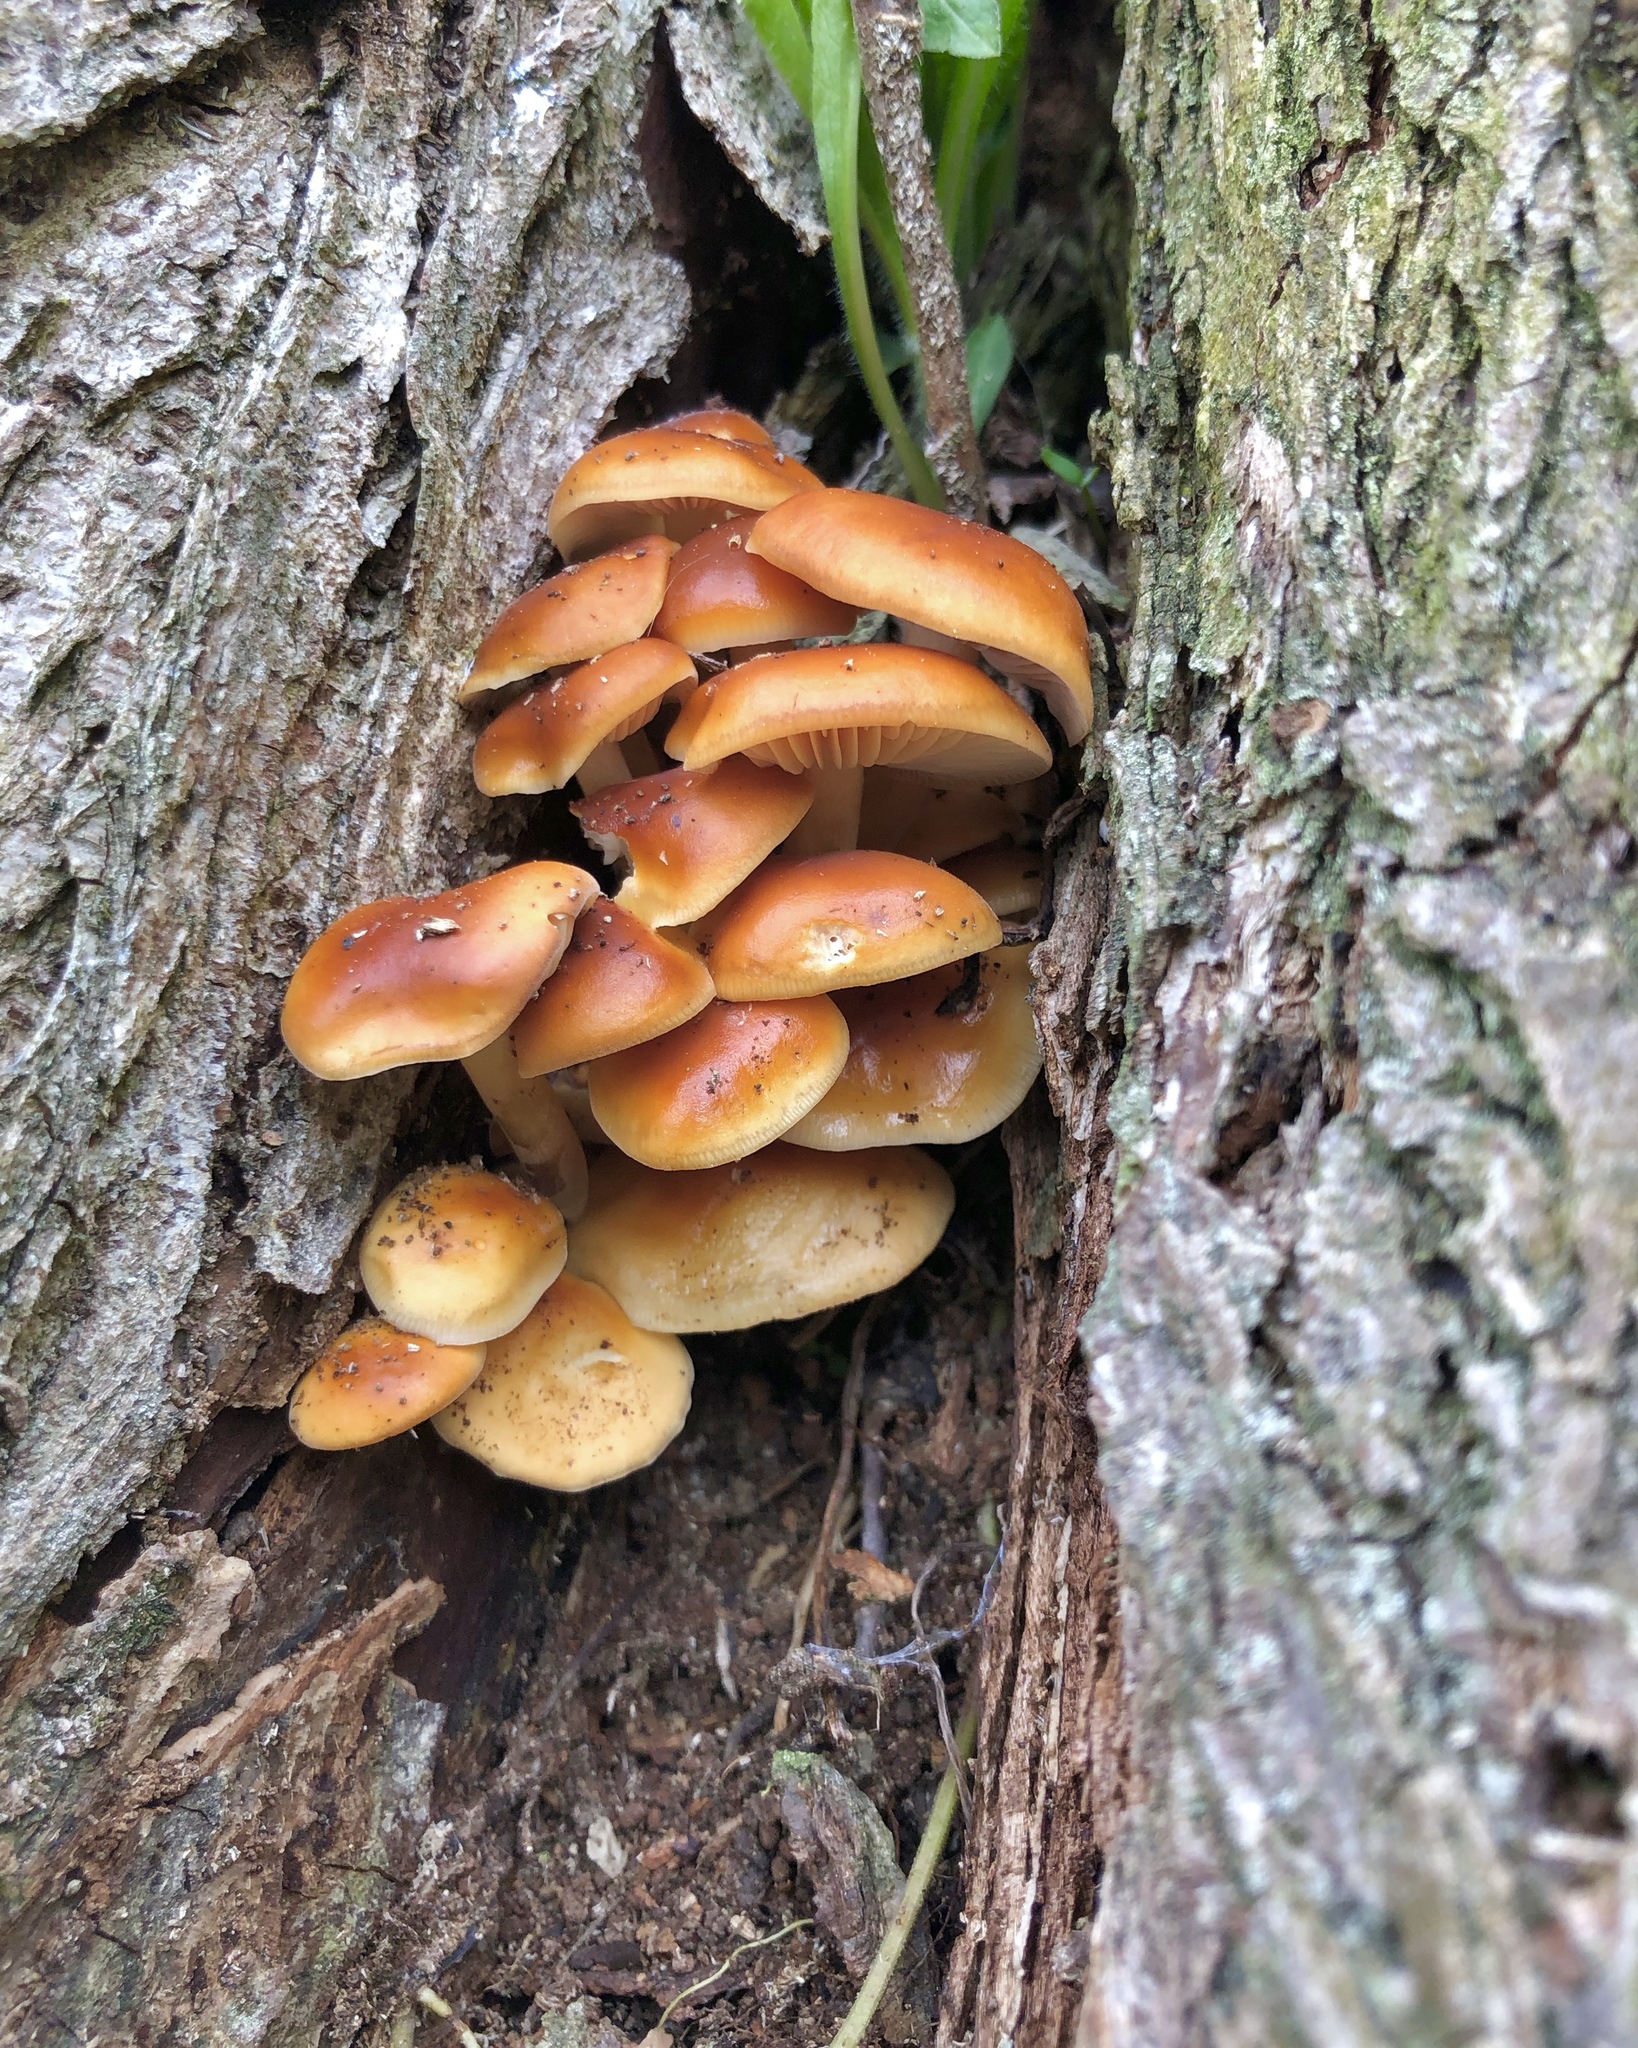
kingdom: Fungi
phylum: Basidiomycota
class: Agaricomycetes
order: Agaricales
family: Physalacriaceae
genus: Flammulina
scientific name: Flammulina velutipes
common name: Velvet shank
